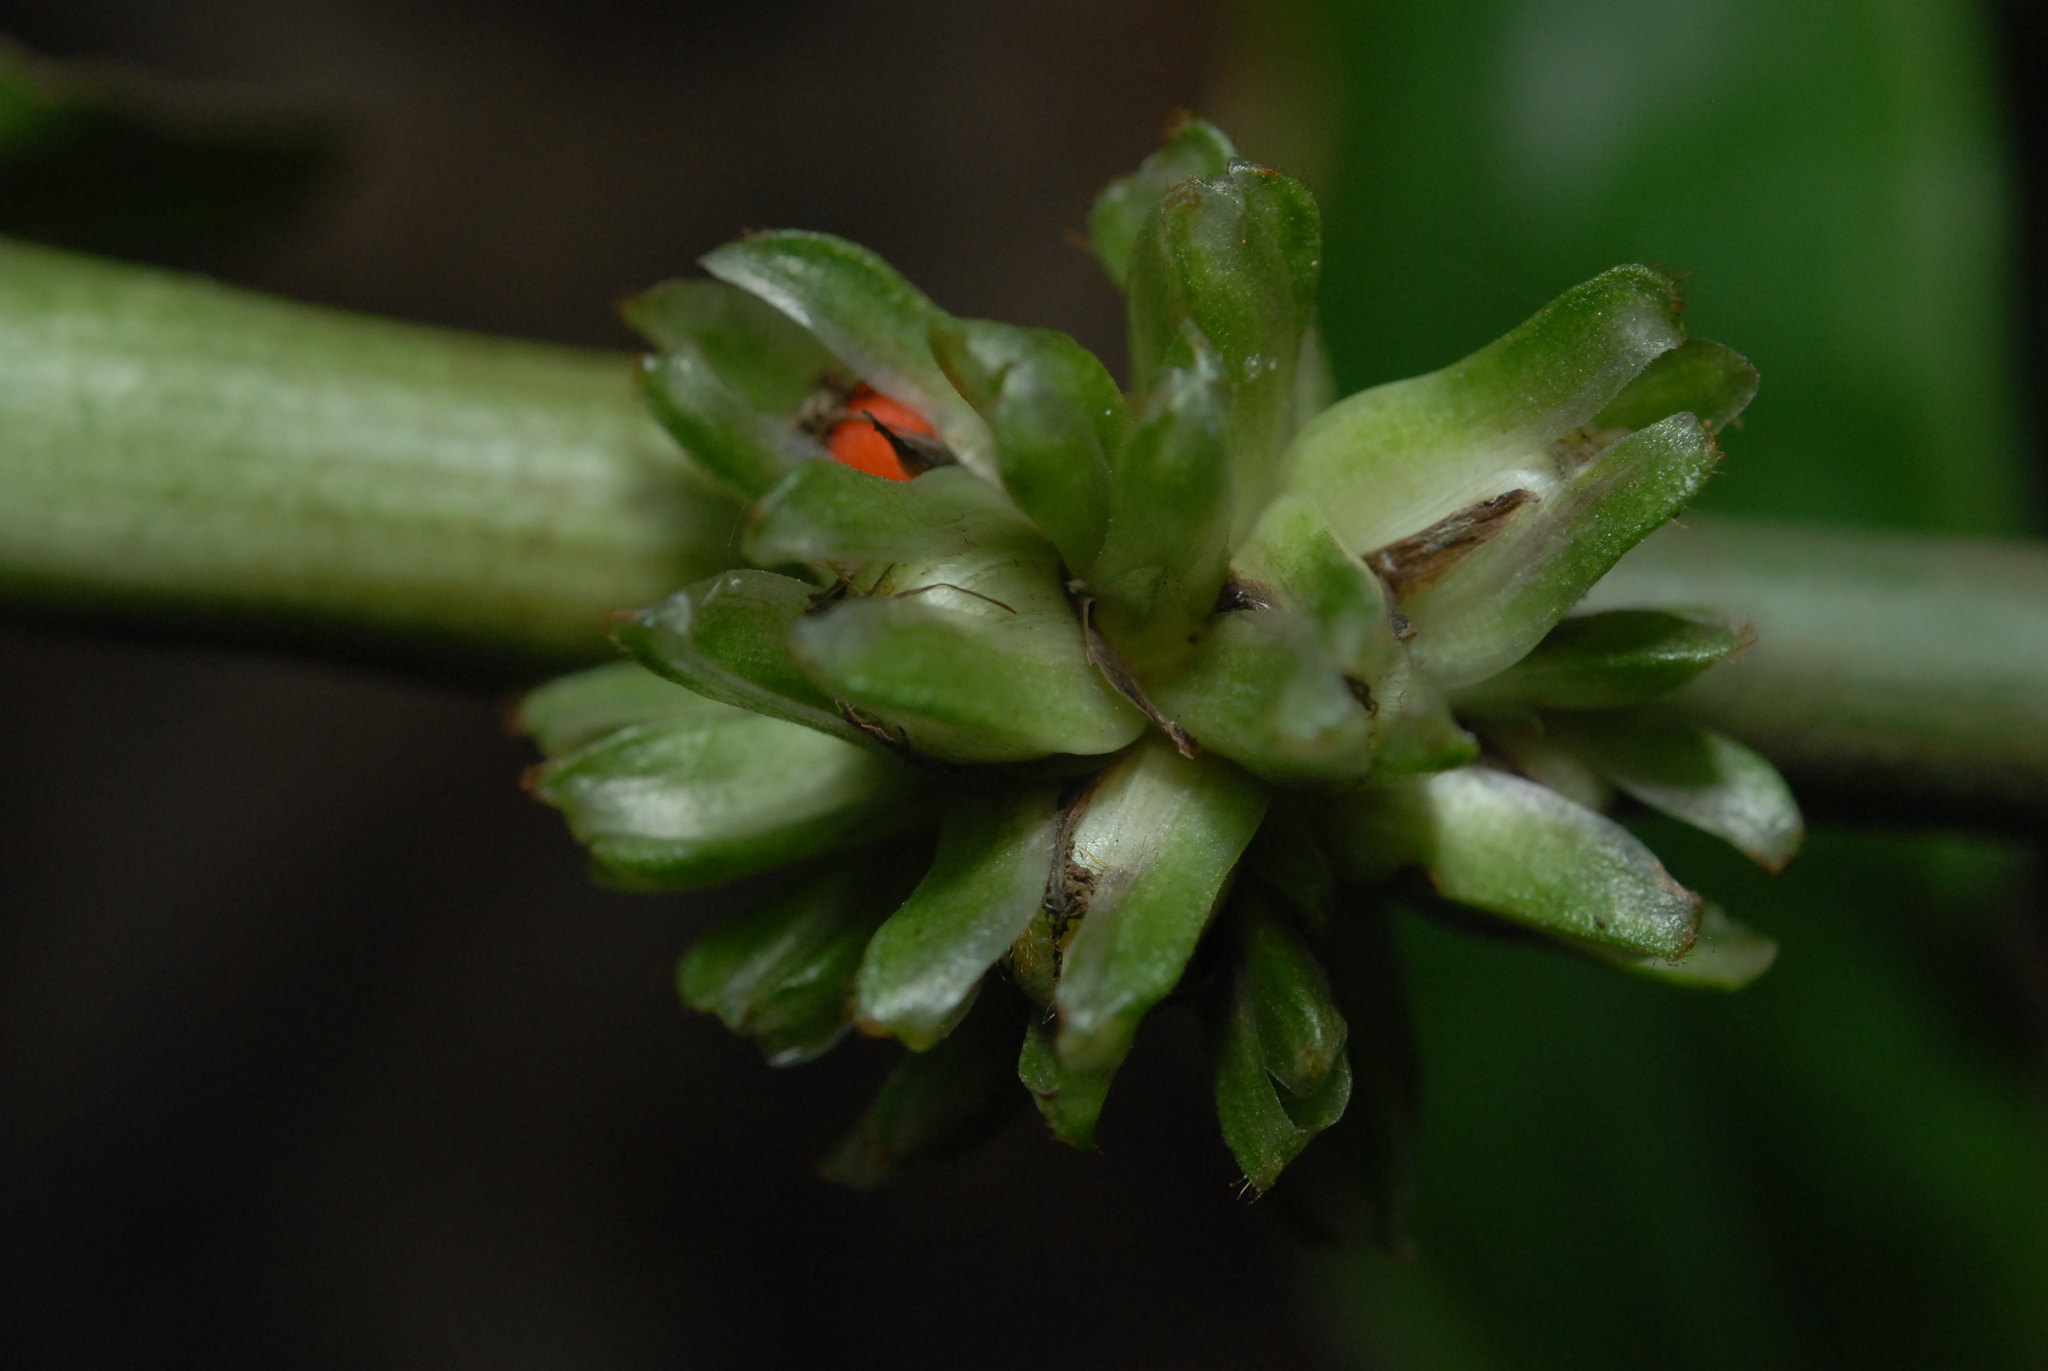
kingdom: Plantae
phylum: Tracheophyta
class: Liliopsida
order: Commelinales
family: Commelinaceae
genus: Amischotolype
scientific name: Amischotolype glabrata
